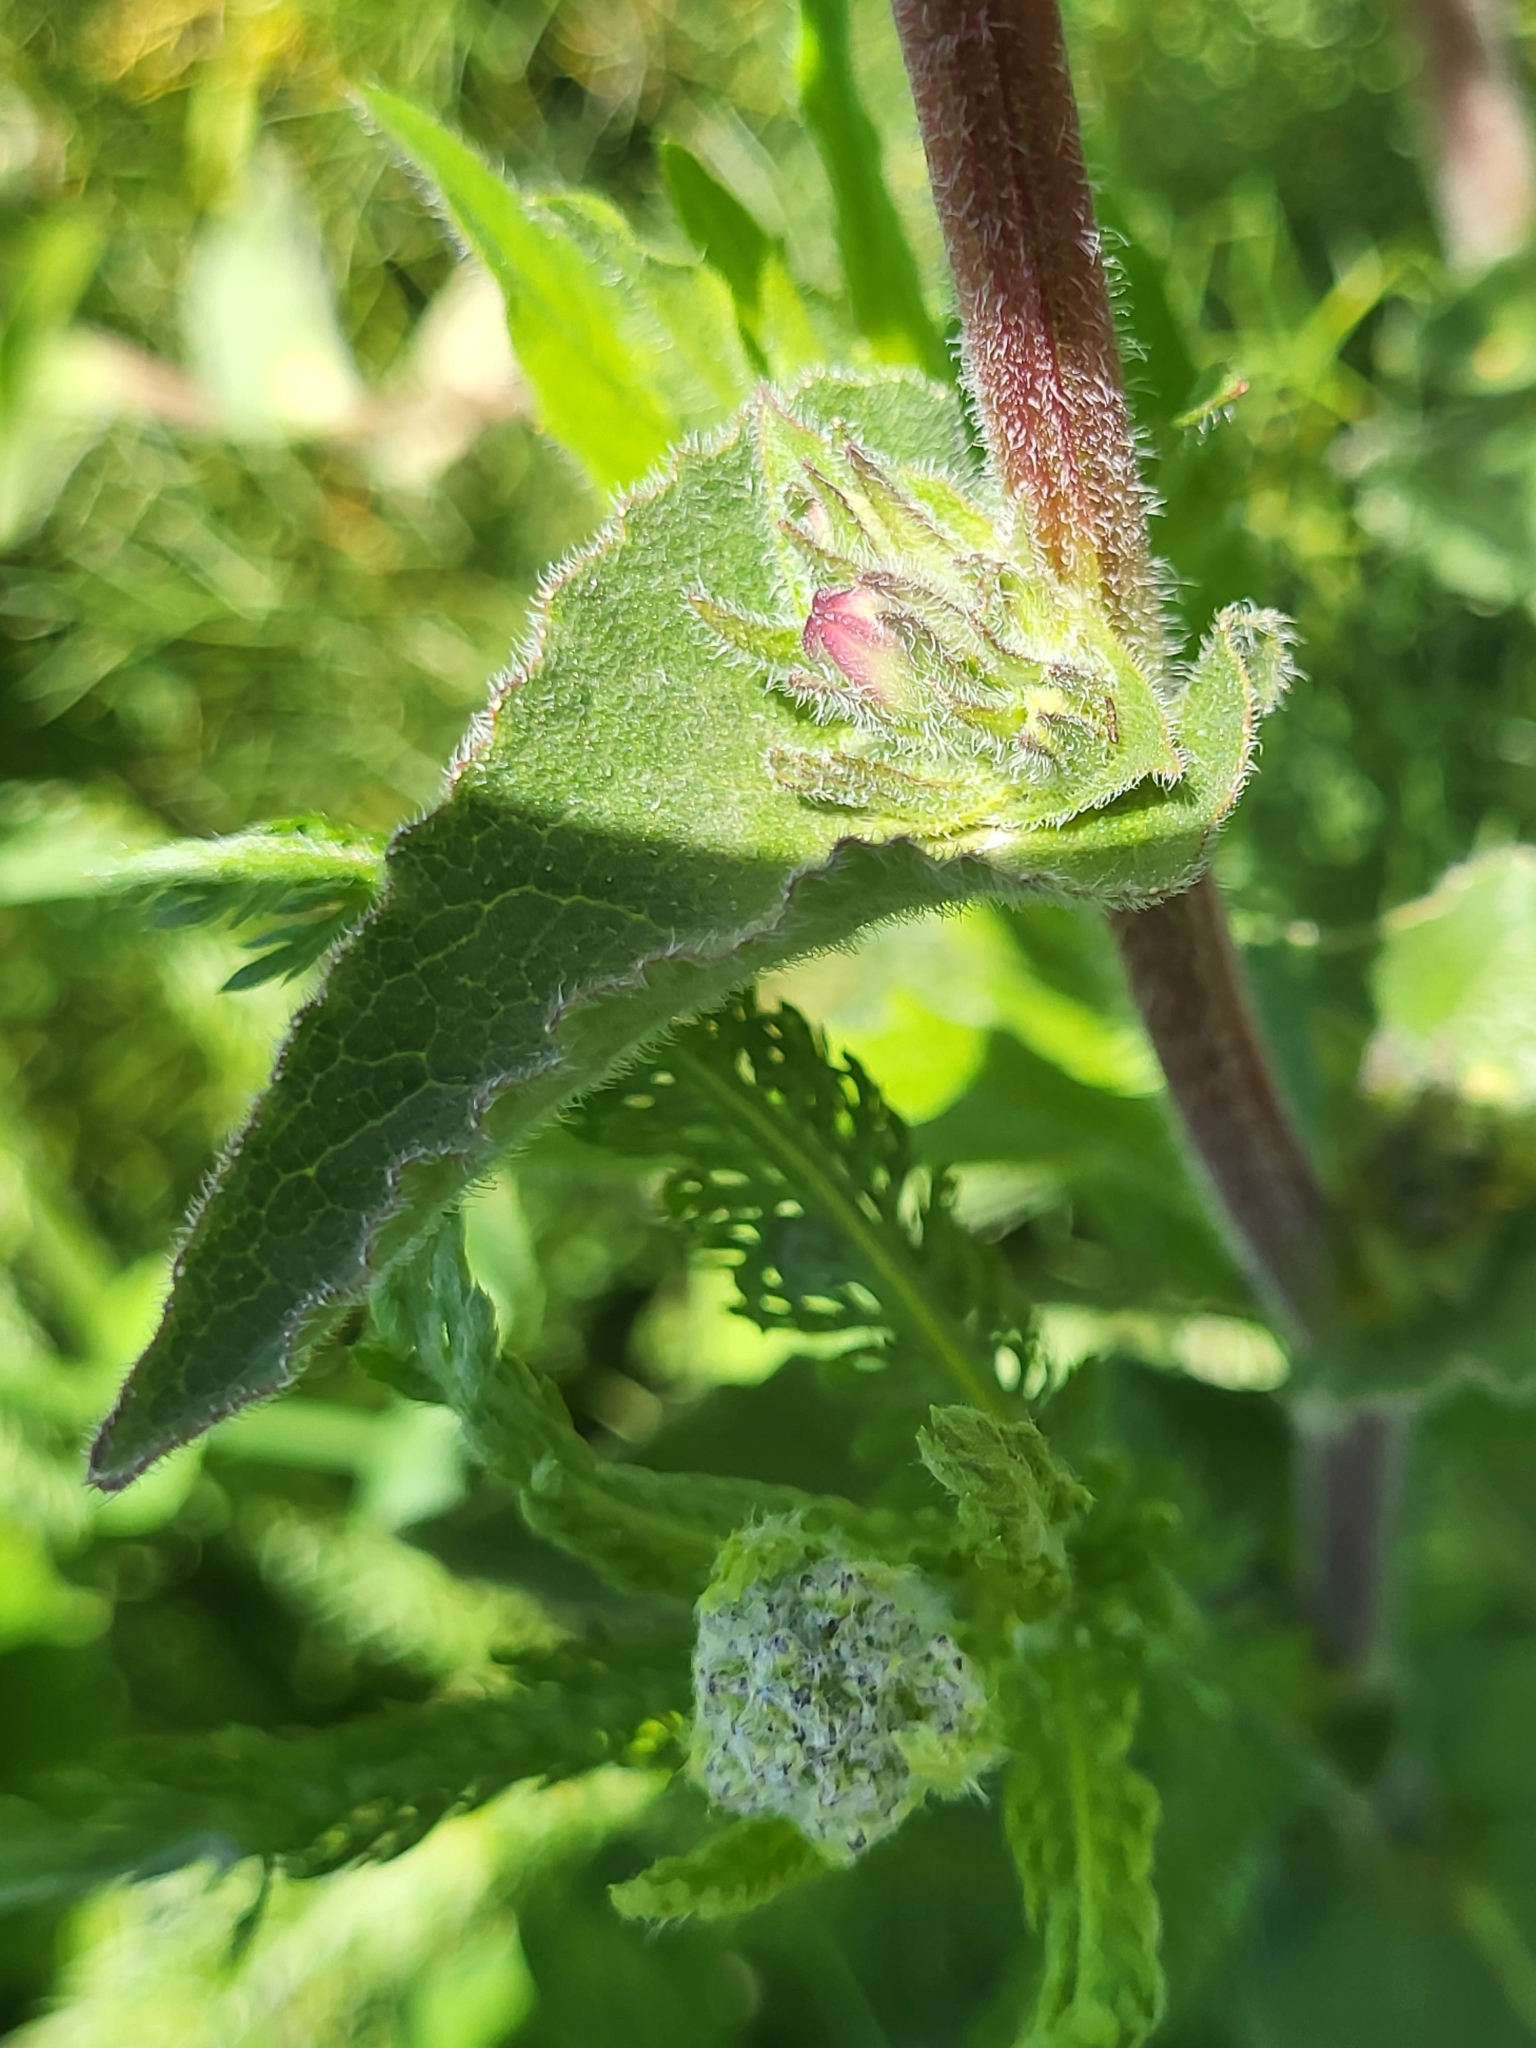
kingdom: Plantae
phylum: Tracheophyta
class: Magnoliopsida
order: Asterales
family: Campanulaceae
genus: Campanula
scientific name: Campanula glomerata
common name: Clustered bellflower
